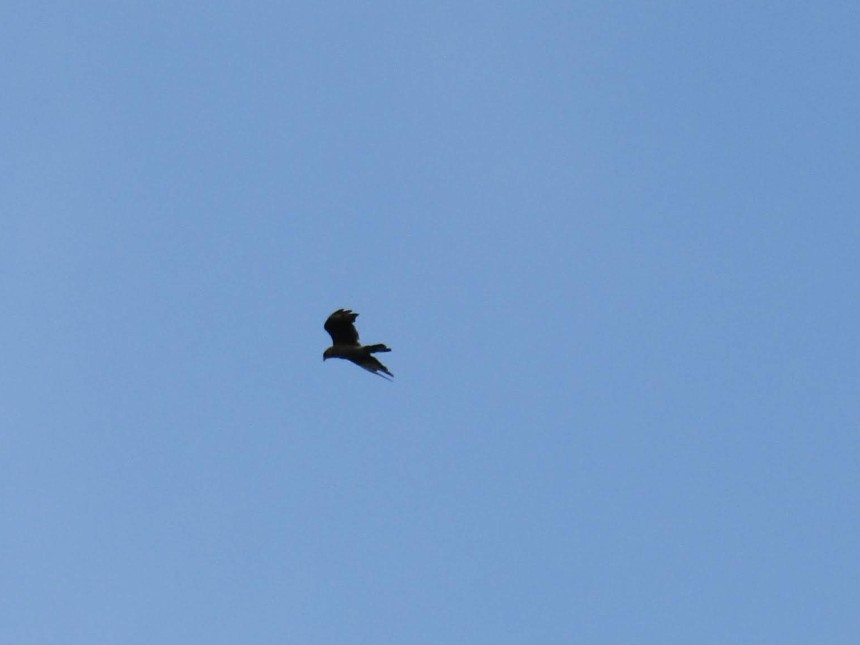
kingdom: Animalia
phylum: Chordata
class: Aves
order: Falconiformes
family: Falconidae
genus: Daptrius
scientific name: Daptrius
